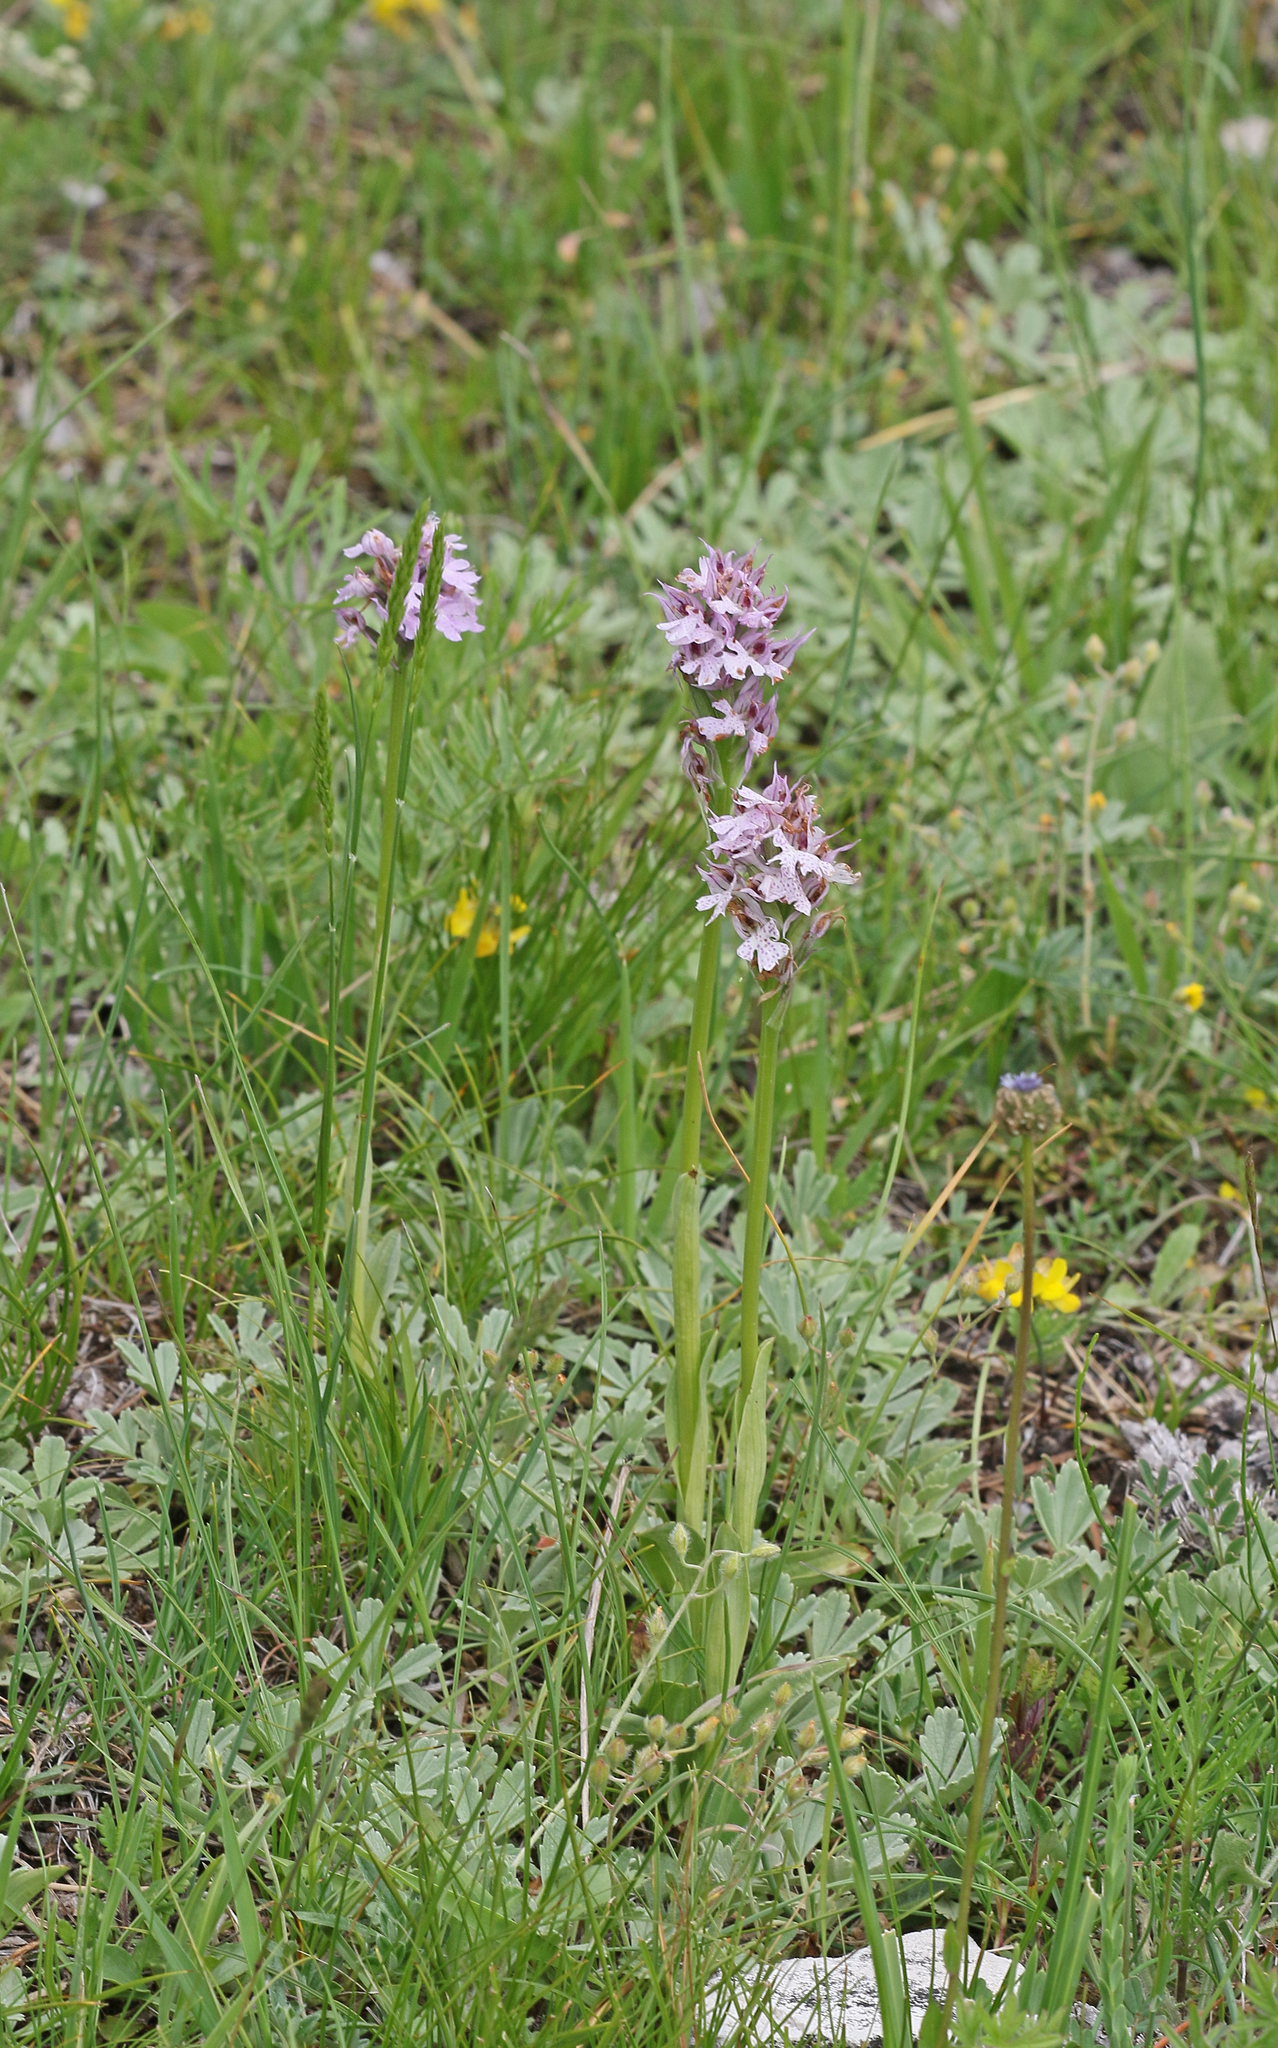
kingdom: Plantae
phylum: Tracheophyta
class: Liliopsida
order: Asparagales
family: Orchidaceae
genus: Neotinea
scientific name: Neotinea tridentata
